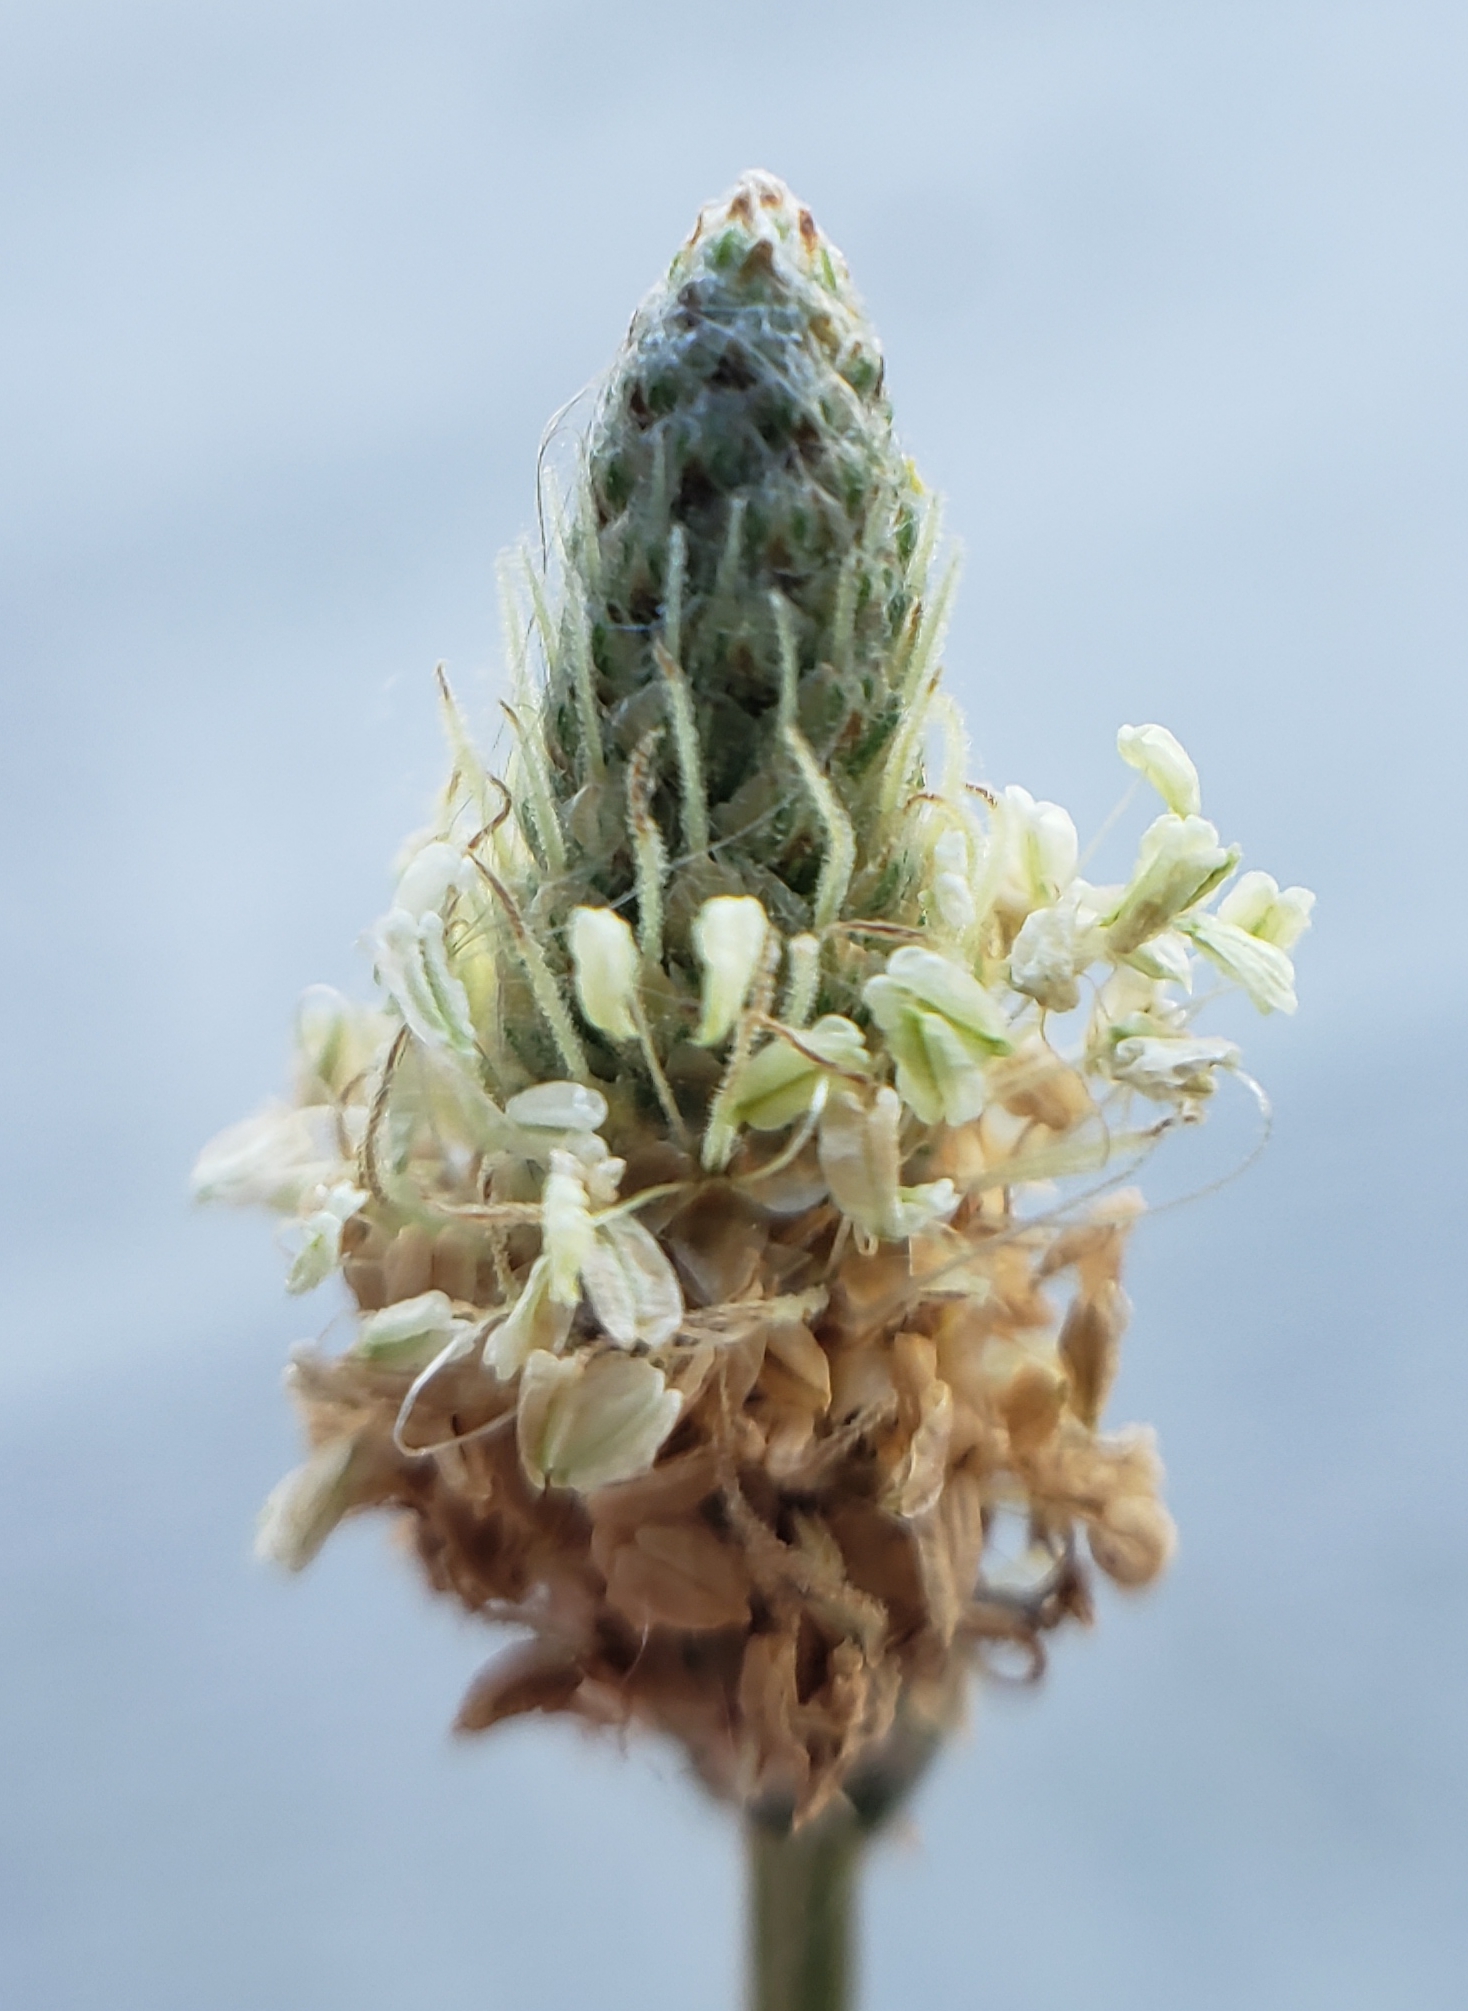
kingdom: Plantae
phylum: Tracheophyta
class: Magnoliopsida
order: Lamiales
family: Plantaginaceae
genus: Plantago
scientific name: Plantago lanceolata
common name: Ribwort plantain
